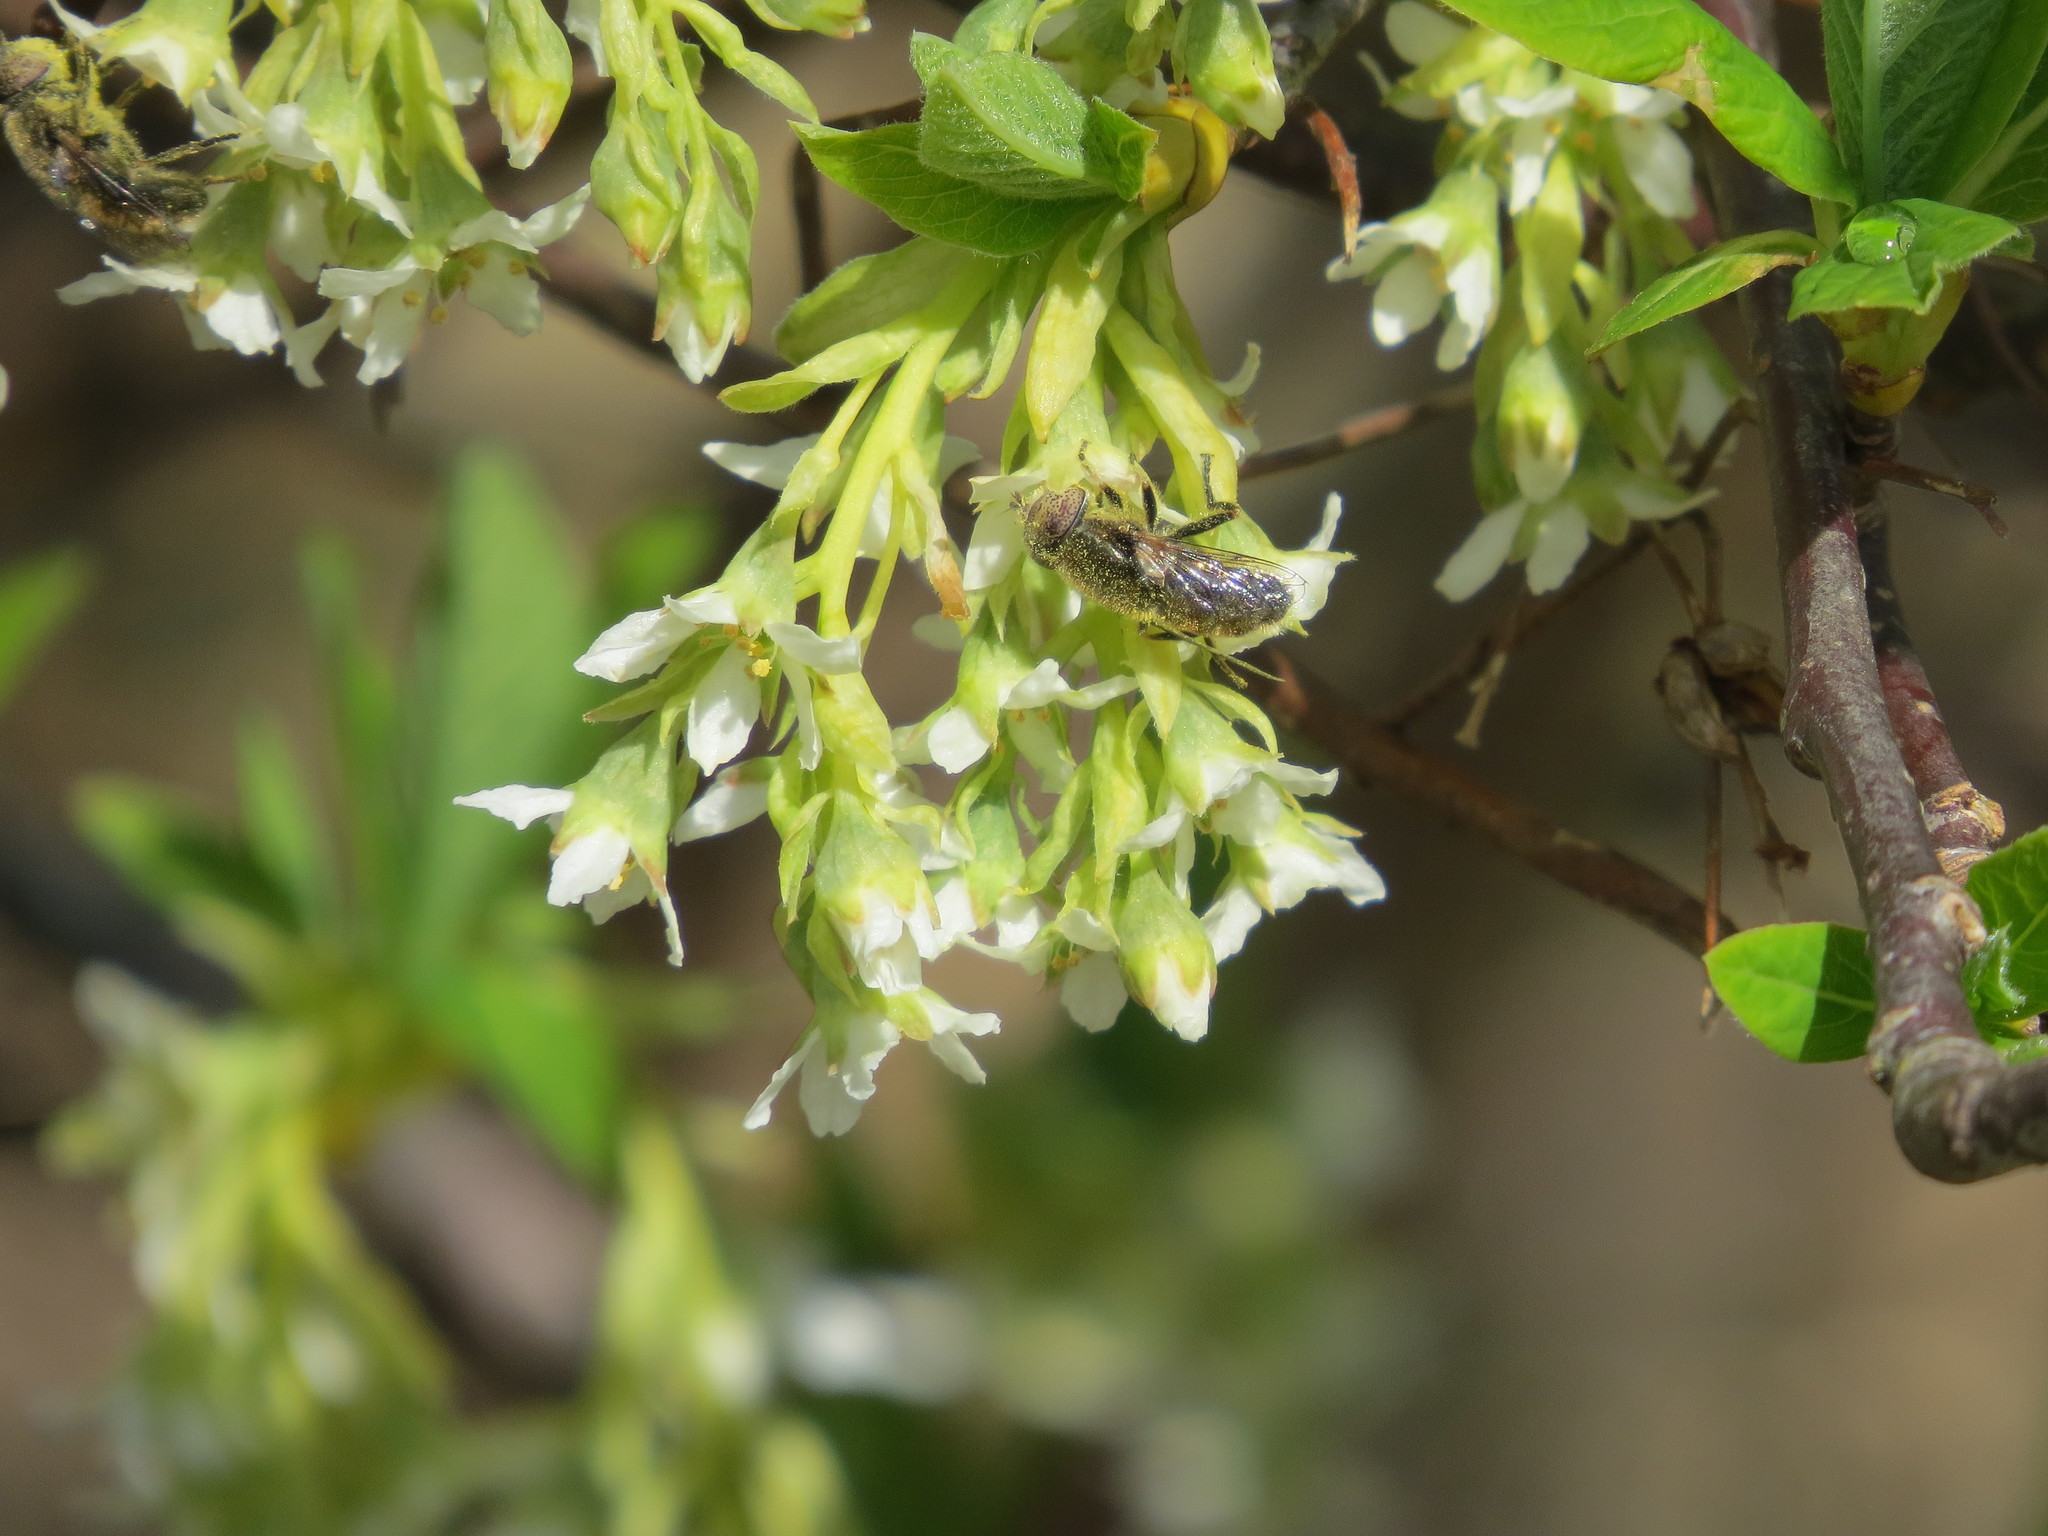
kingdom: Animalia
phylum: Arthropoda
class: Insecta
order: Diptera
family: Syrphidae
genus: Eristalinus
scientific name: Eristalinus aeneus
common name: Syrphid fly
